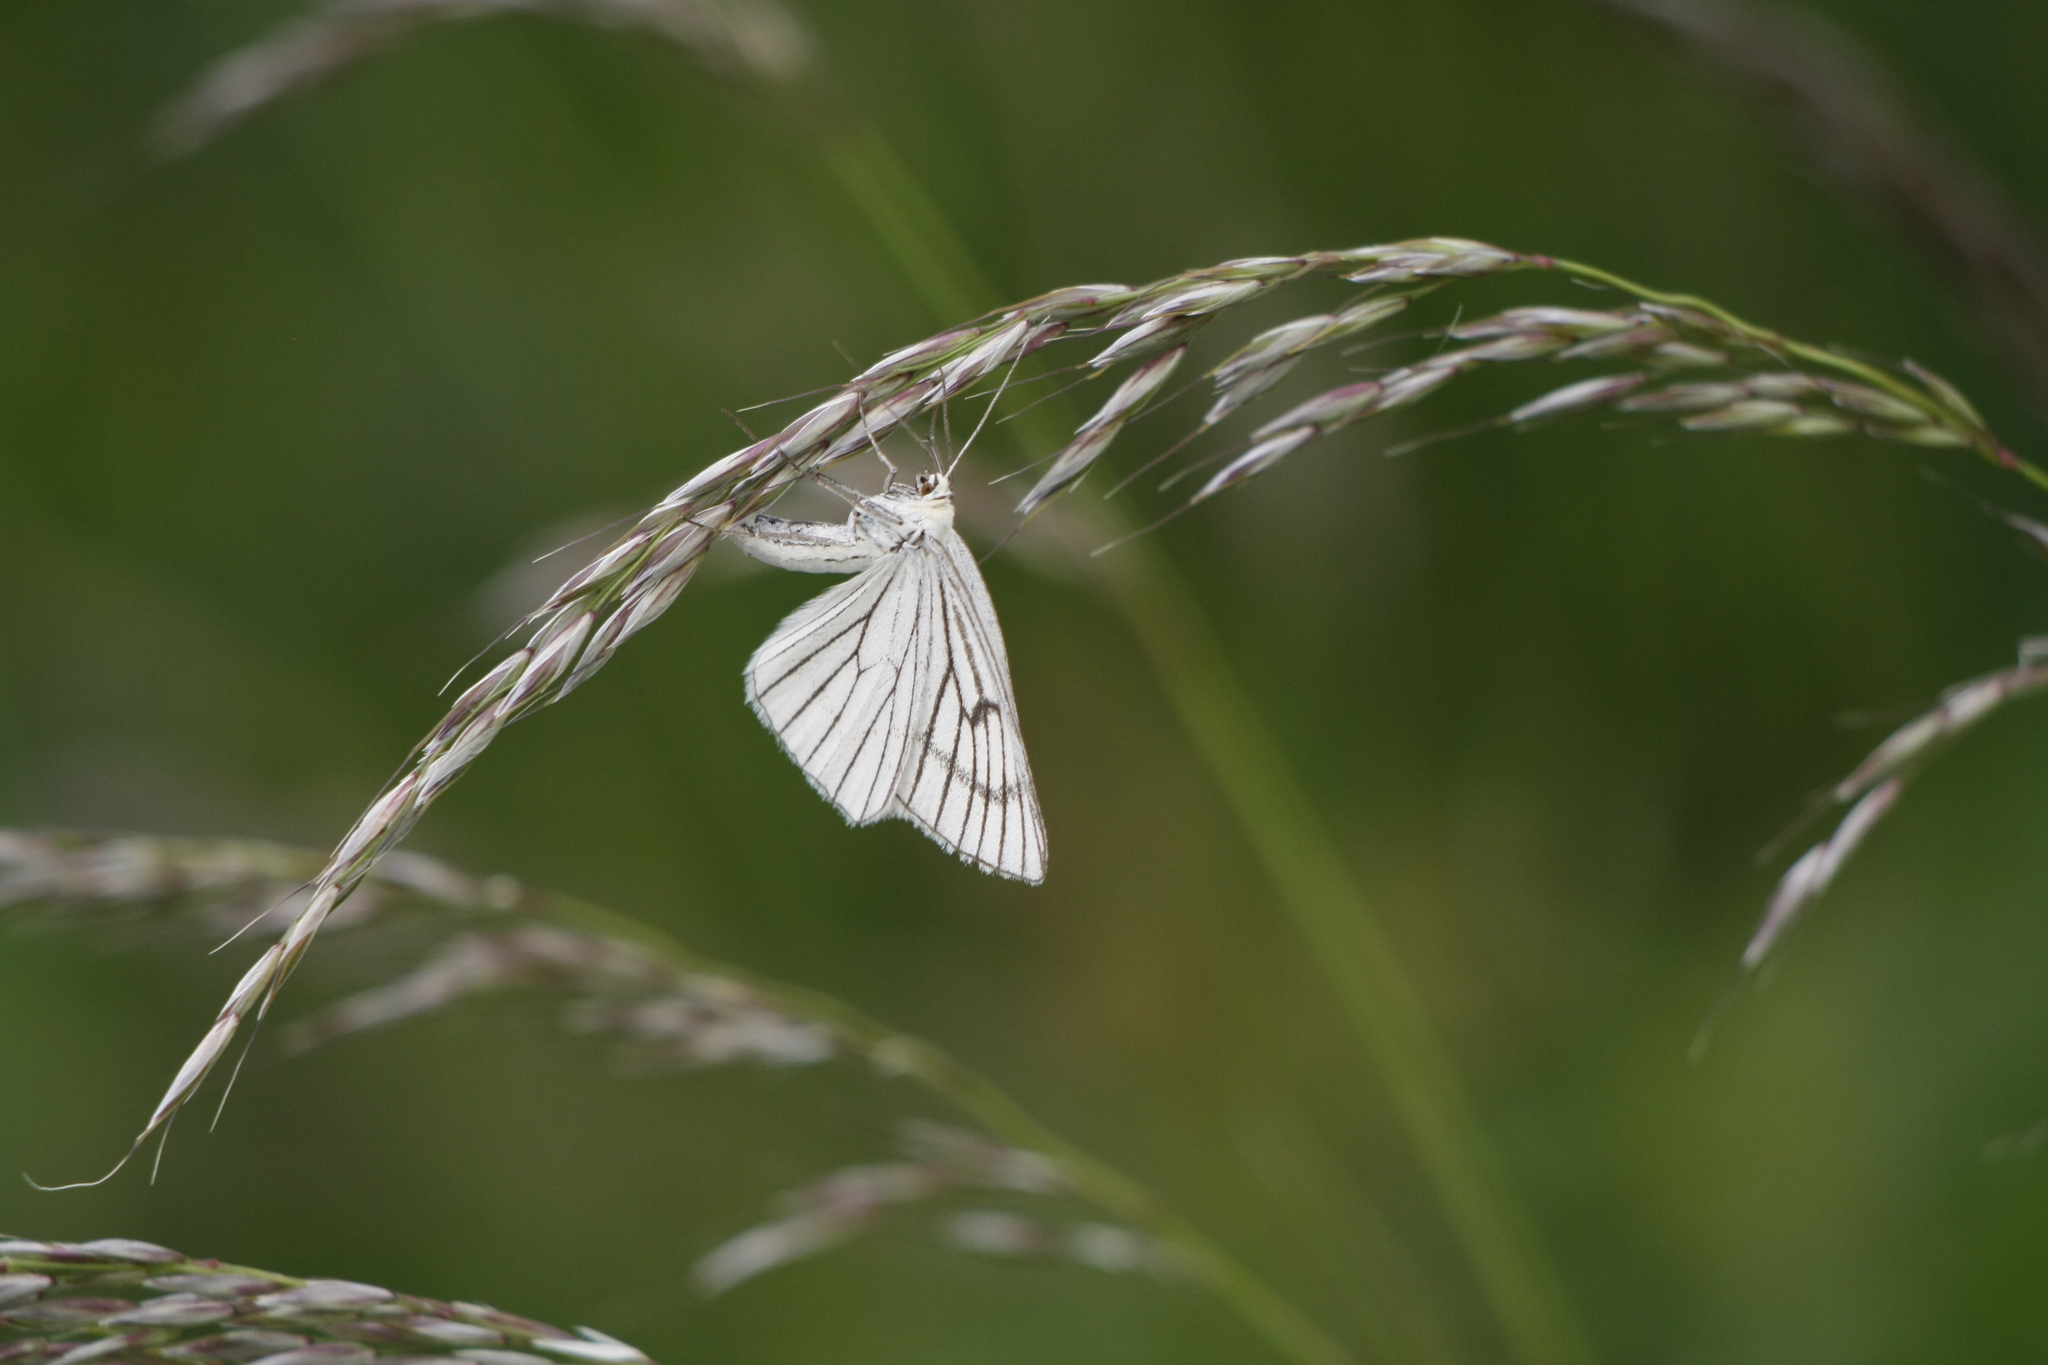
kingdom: Animalia
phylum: Arthropoda
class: Insecta
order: Lepidoptera
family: Geometridae
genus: Siona
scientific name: Siona lineata
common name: Black-veined moth
